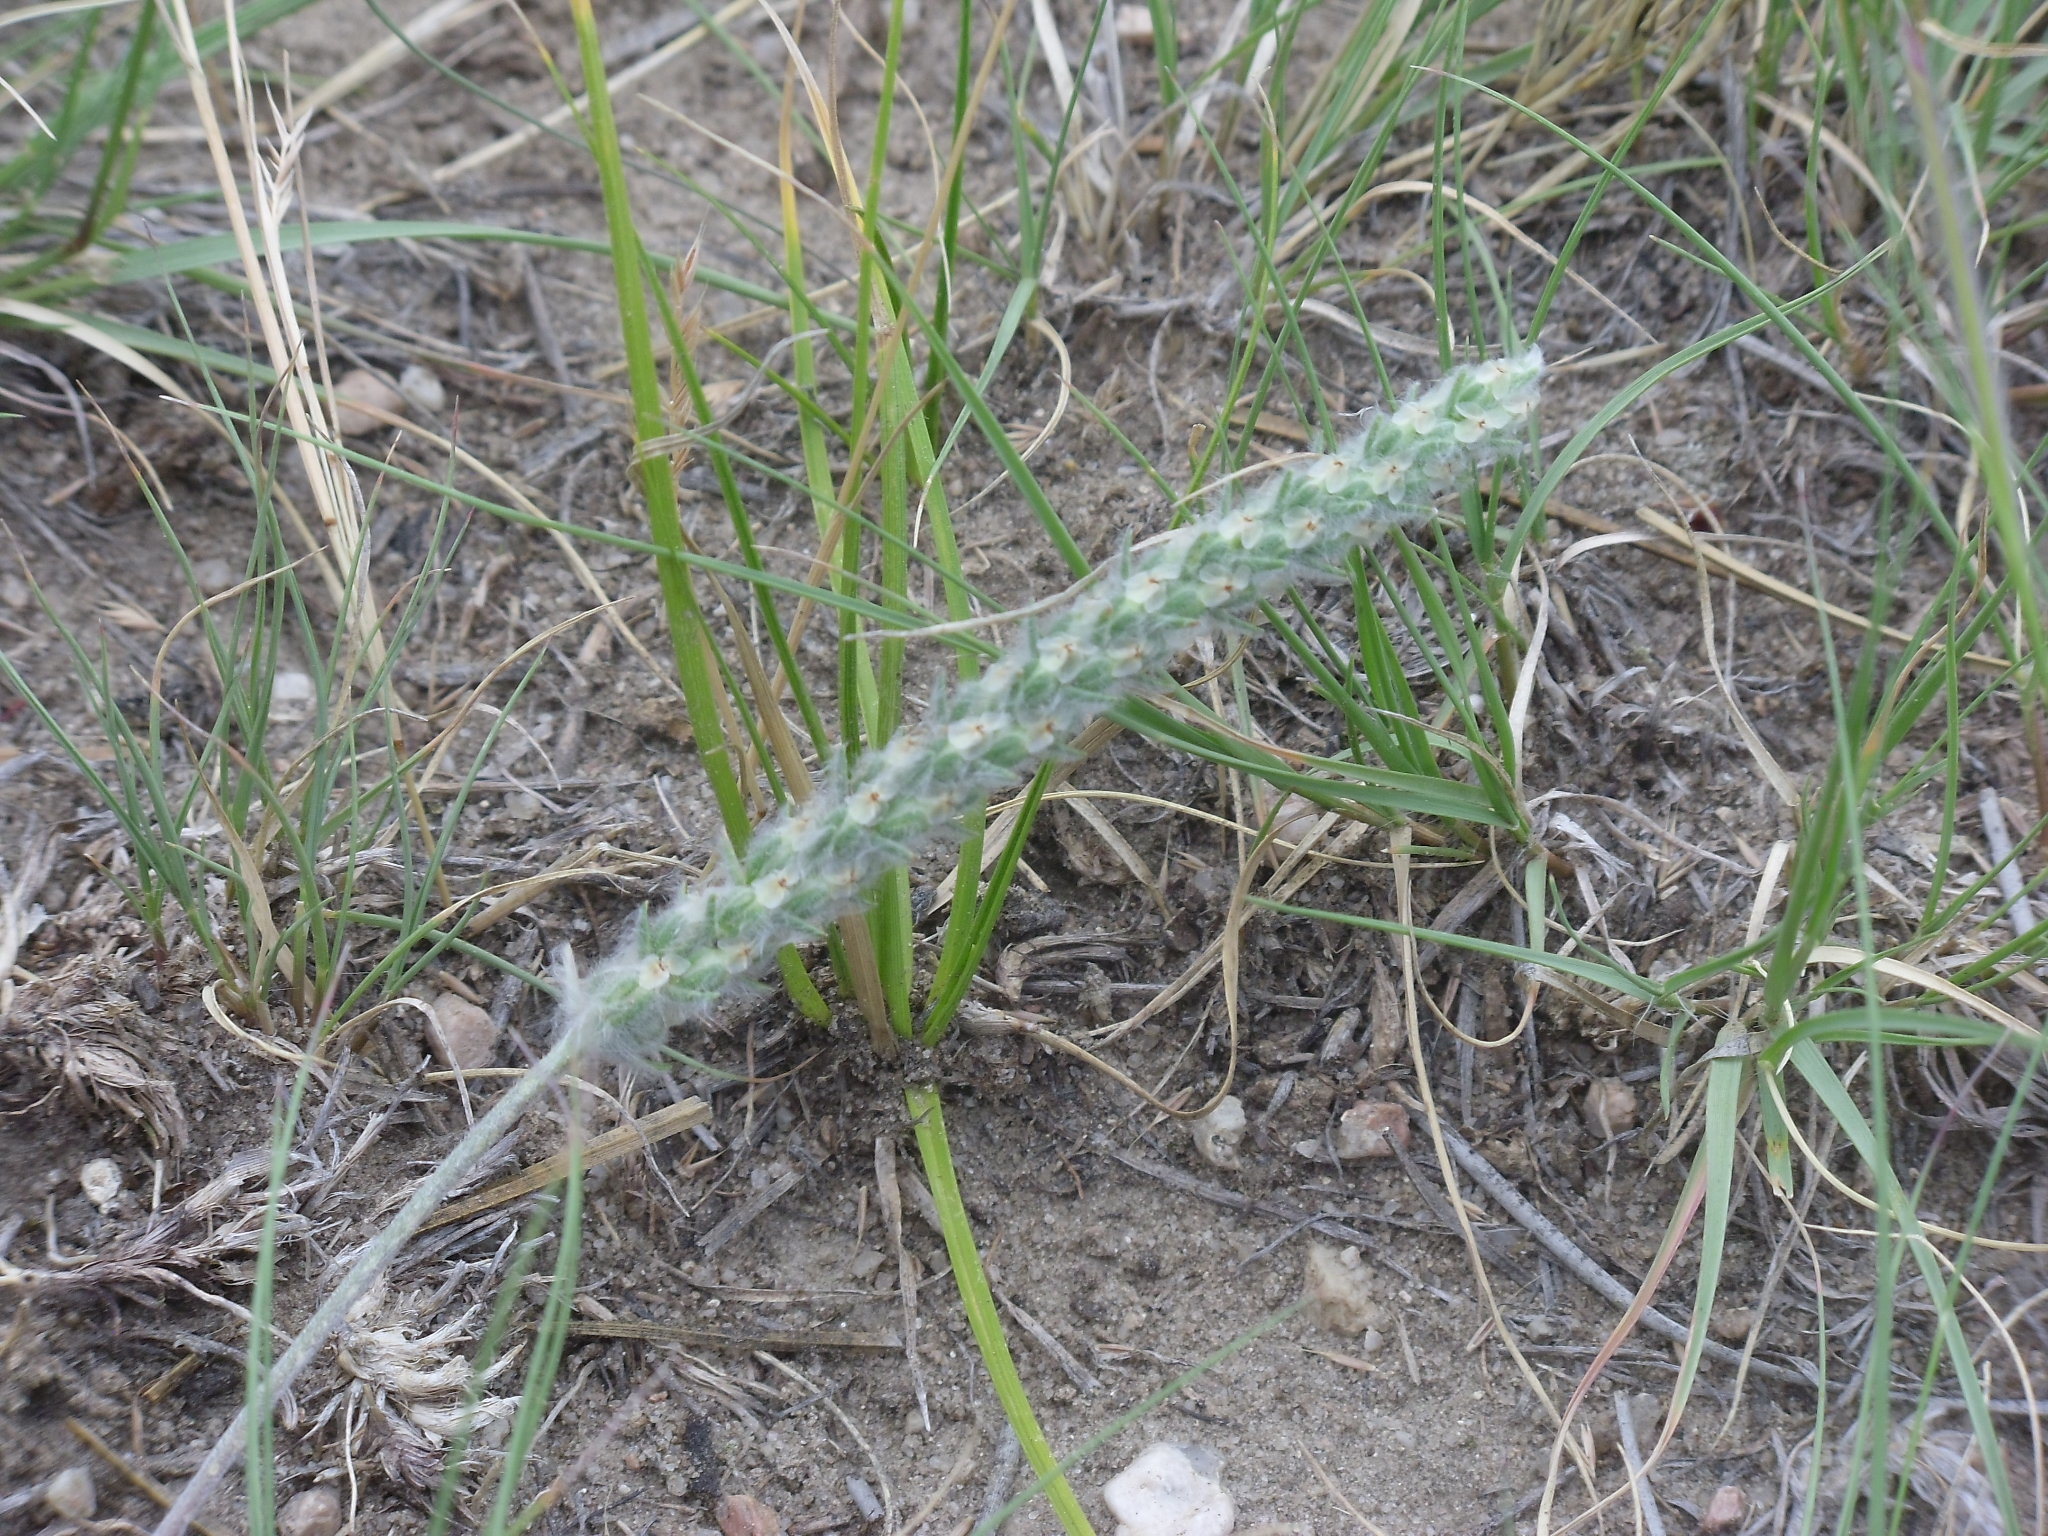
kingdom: Plantae
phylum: Tracheophyta
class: Magnoliopsida
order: Lamiales
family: Plantaginaceae
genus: Plantago
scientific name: Plantago patagonica
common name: Patagonia indian-wheat
